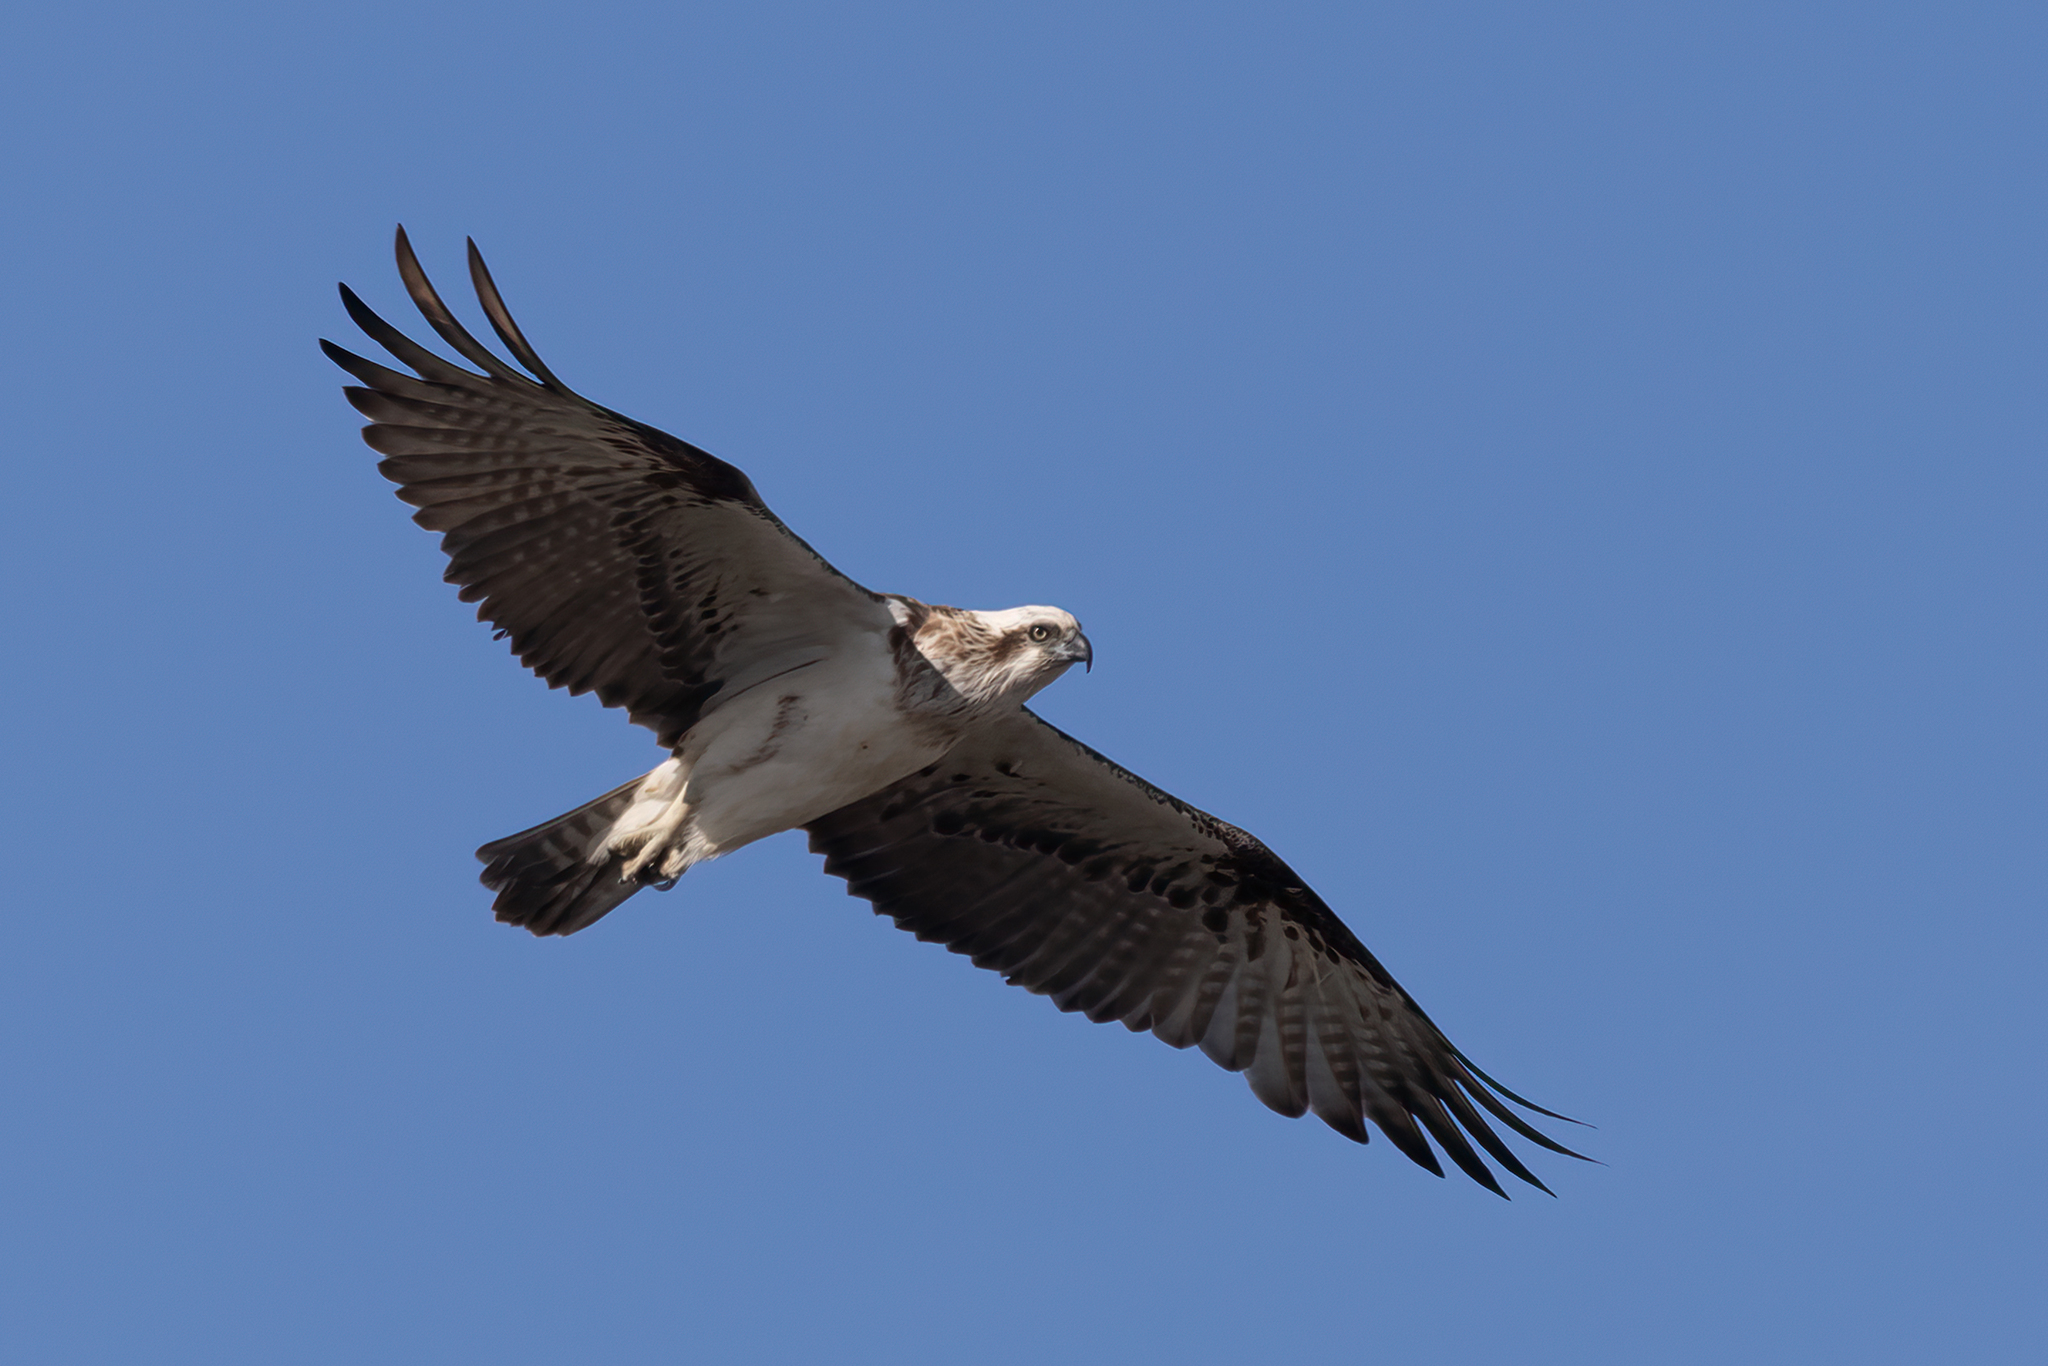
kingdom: Animalia
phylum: Chordata
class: Aves
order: Accipitriformes
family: Pandionidae
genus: Pandion
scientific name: Pandion haliaetus
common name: Osprey
